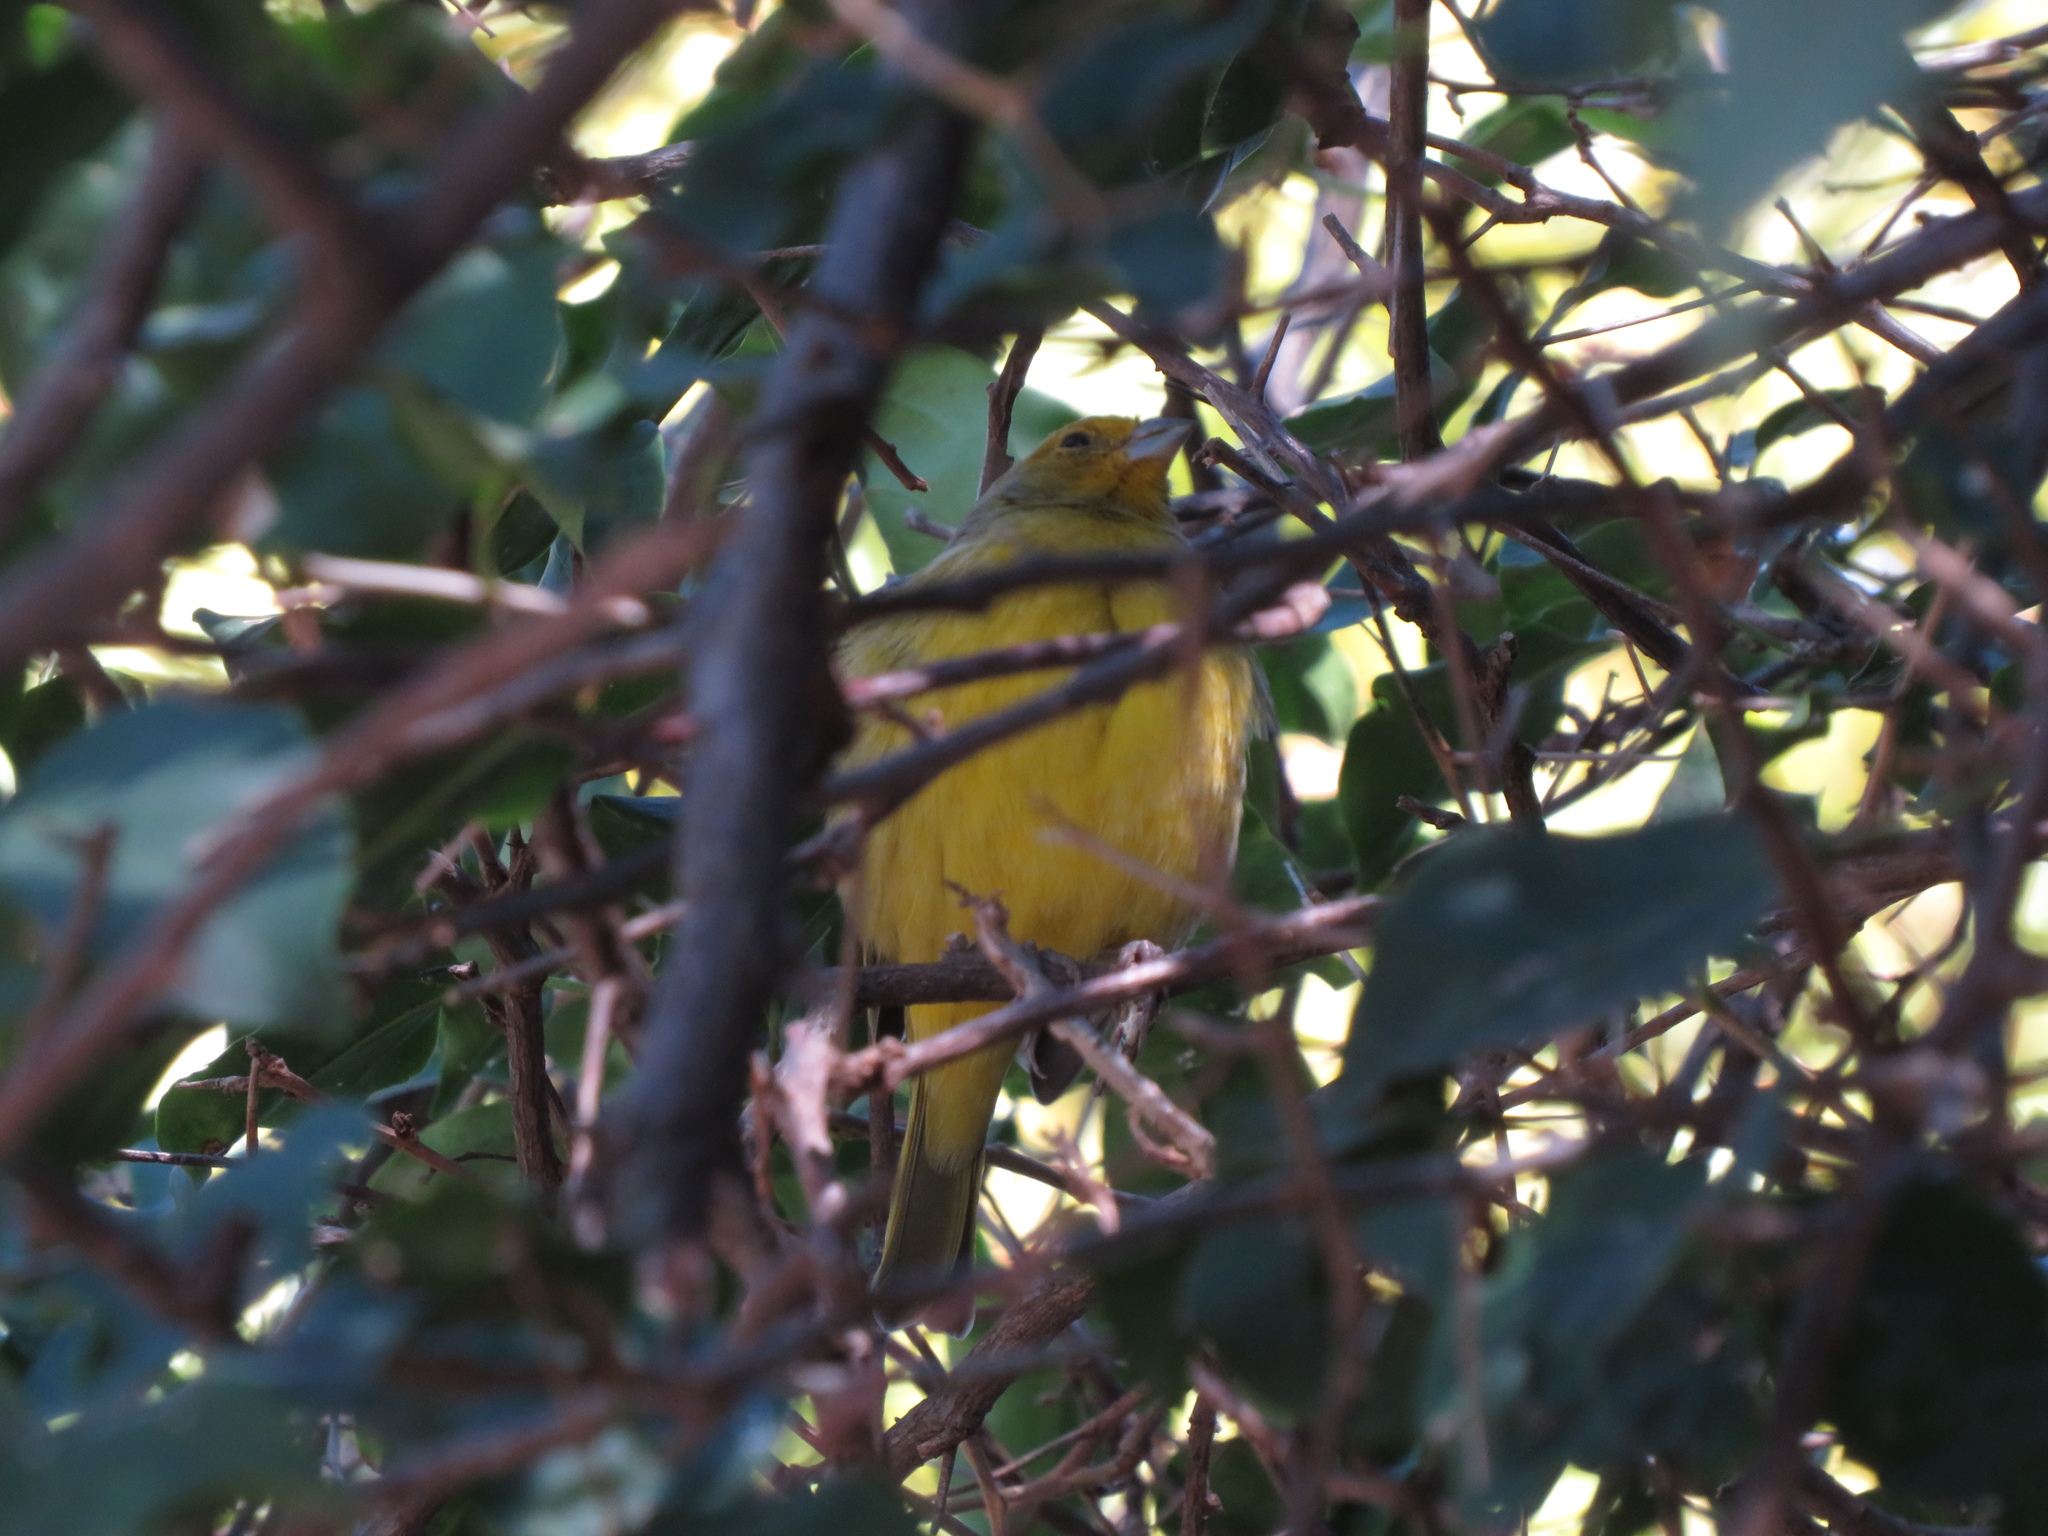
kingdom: Animalia
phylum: Chordata
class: Aves
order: Passeriformes
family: Thraupidae
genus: Sicalis
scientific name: Sicalis flaveola
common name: Saffron finch
